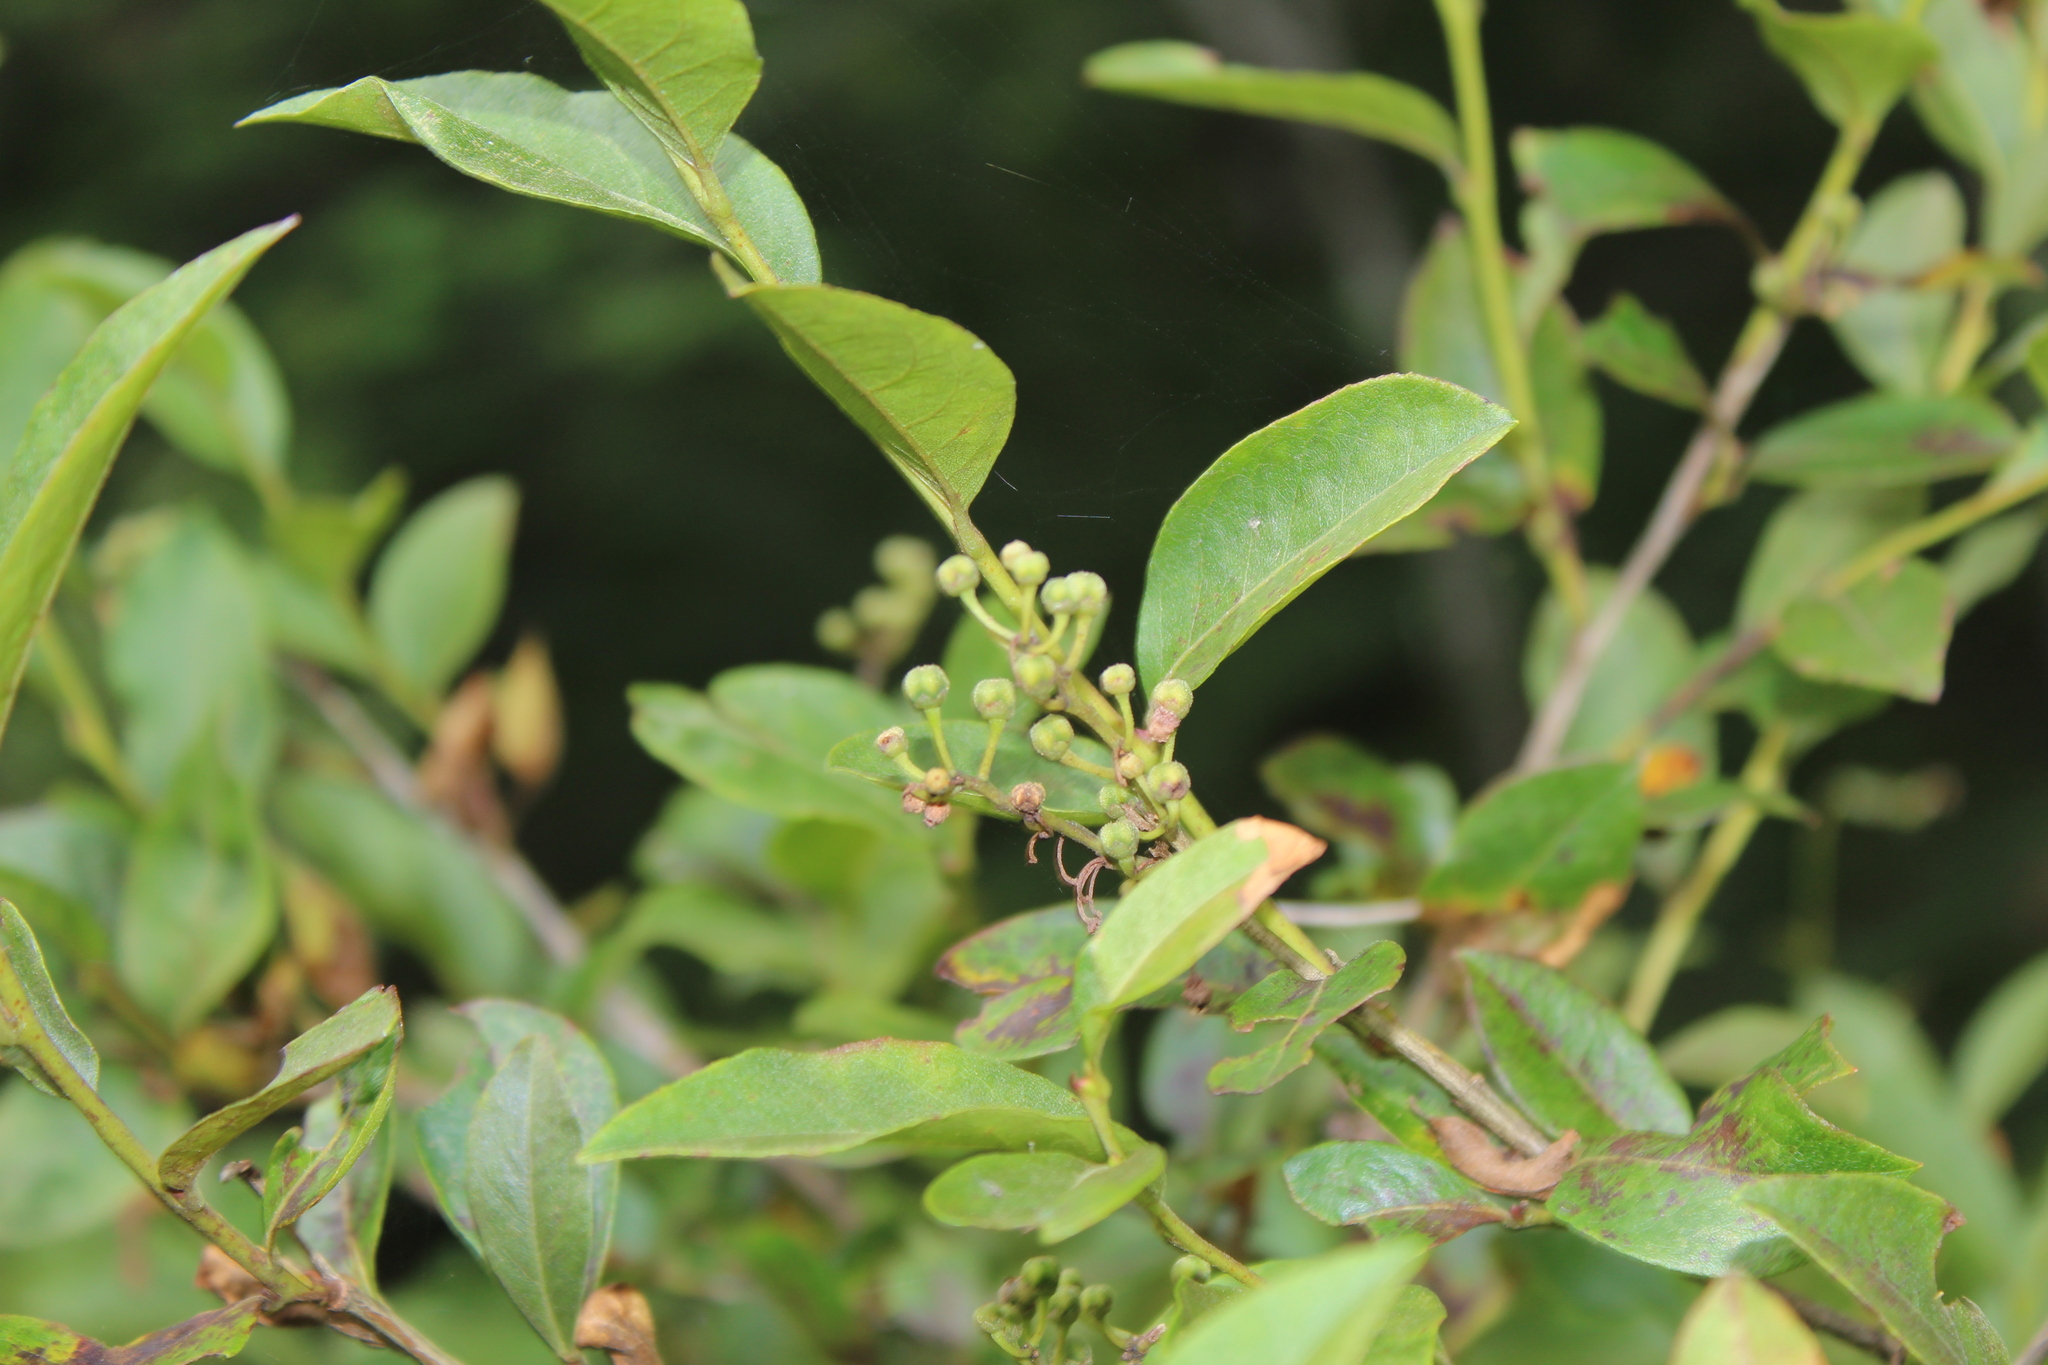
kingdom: Plantae
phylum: Tracheophyta
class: Magnoliopsida
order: Ericales
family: Ericaceae
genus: Lyonia
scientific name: Lyonia ligustrina
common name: Maleberry
